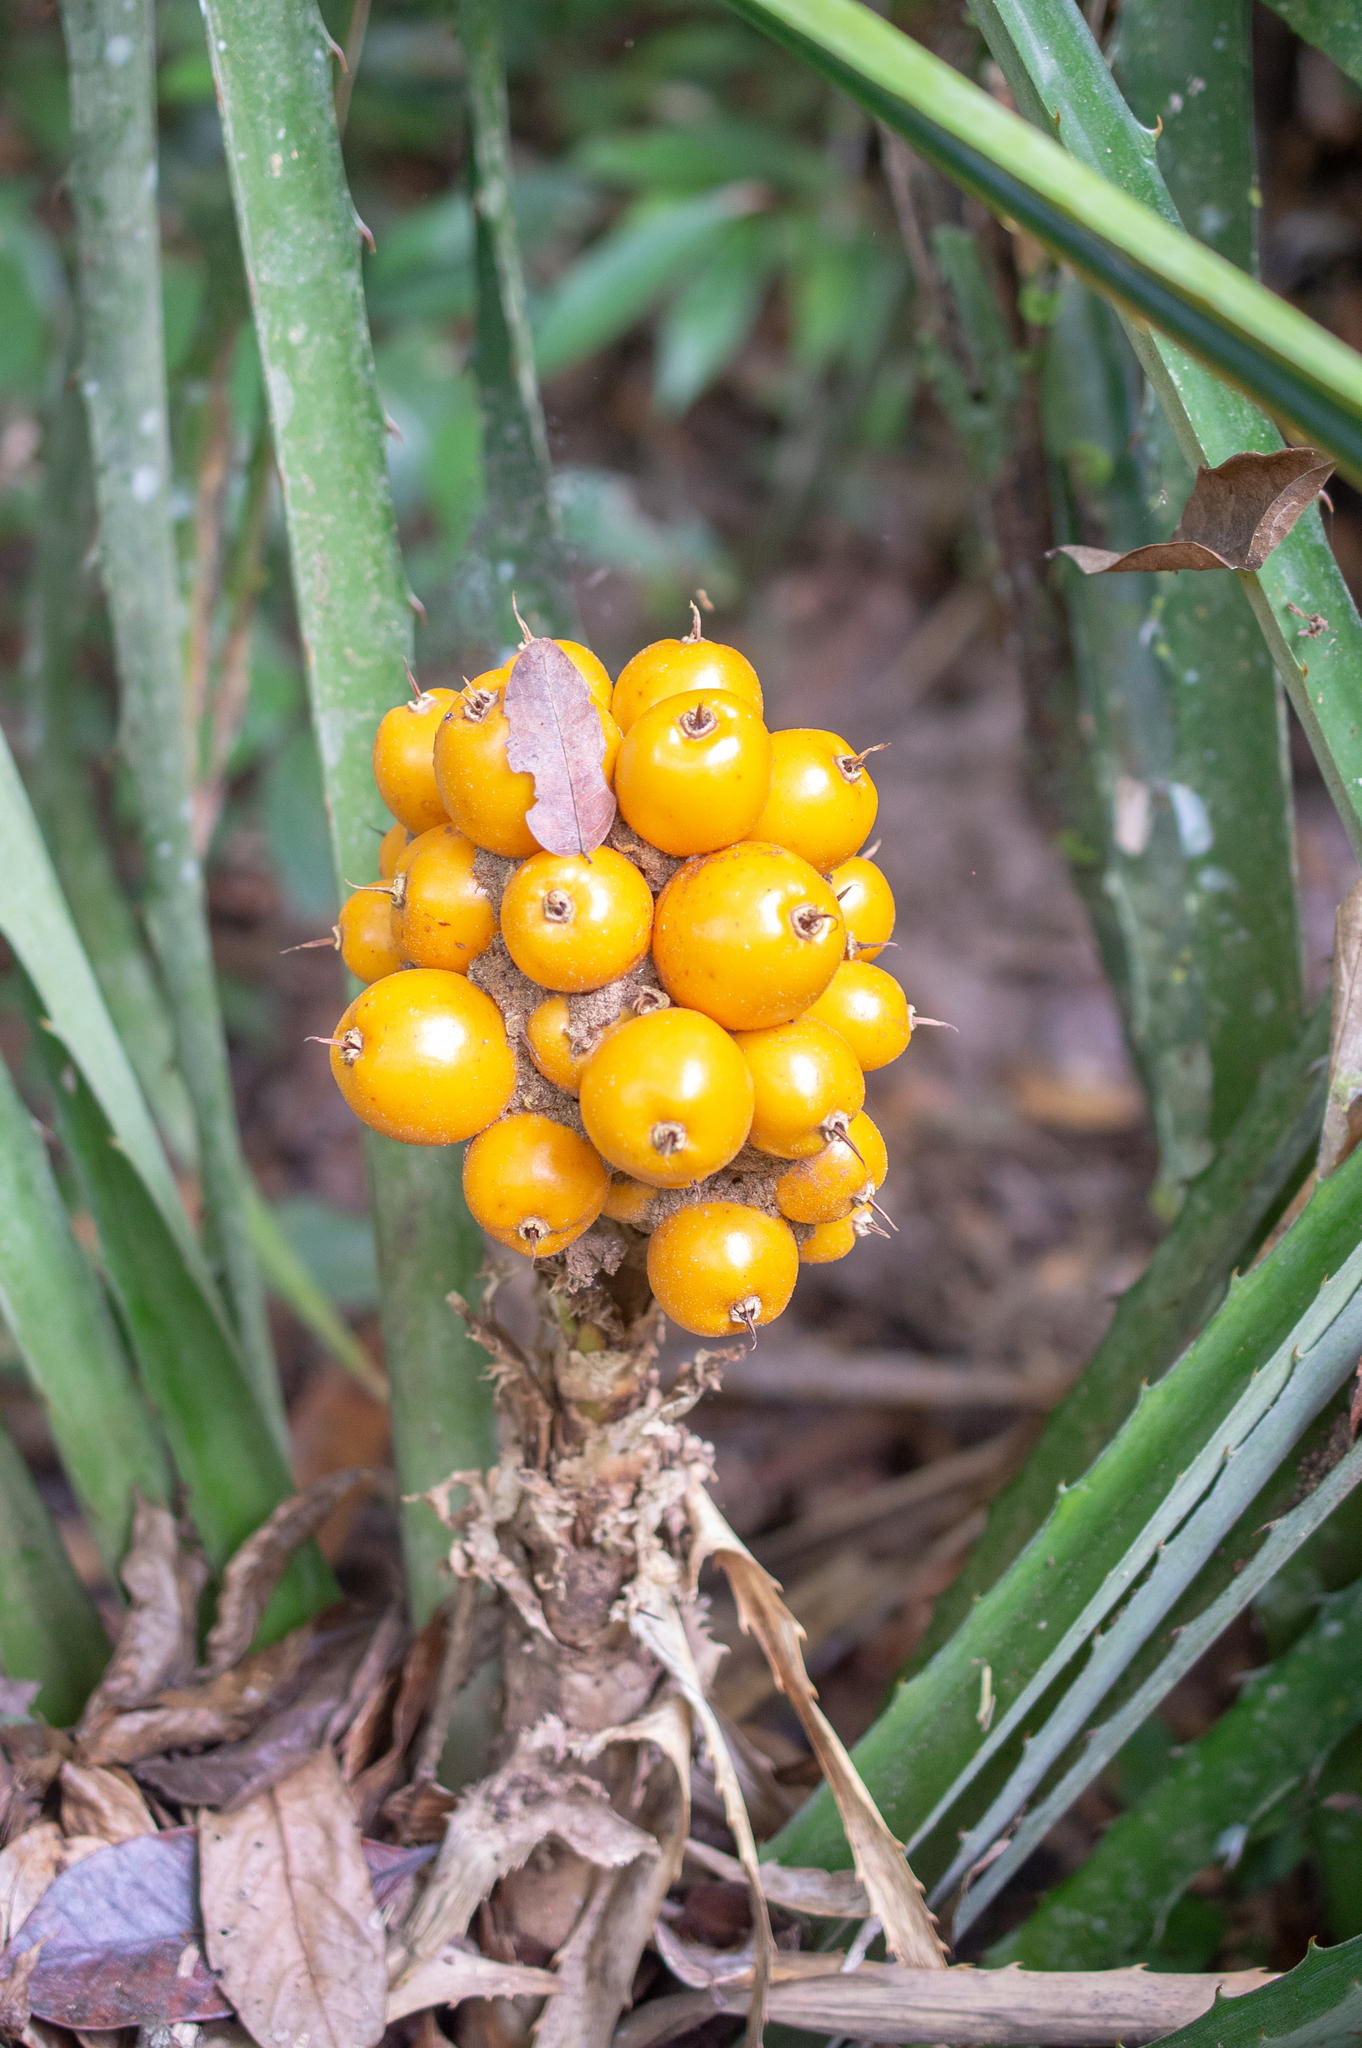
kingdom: Plantae
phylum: Tracheophyta
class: Liliopsida
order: Poales
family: Bromeliaceae
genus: Bromelia
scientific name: Bromelia goeldiana
